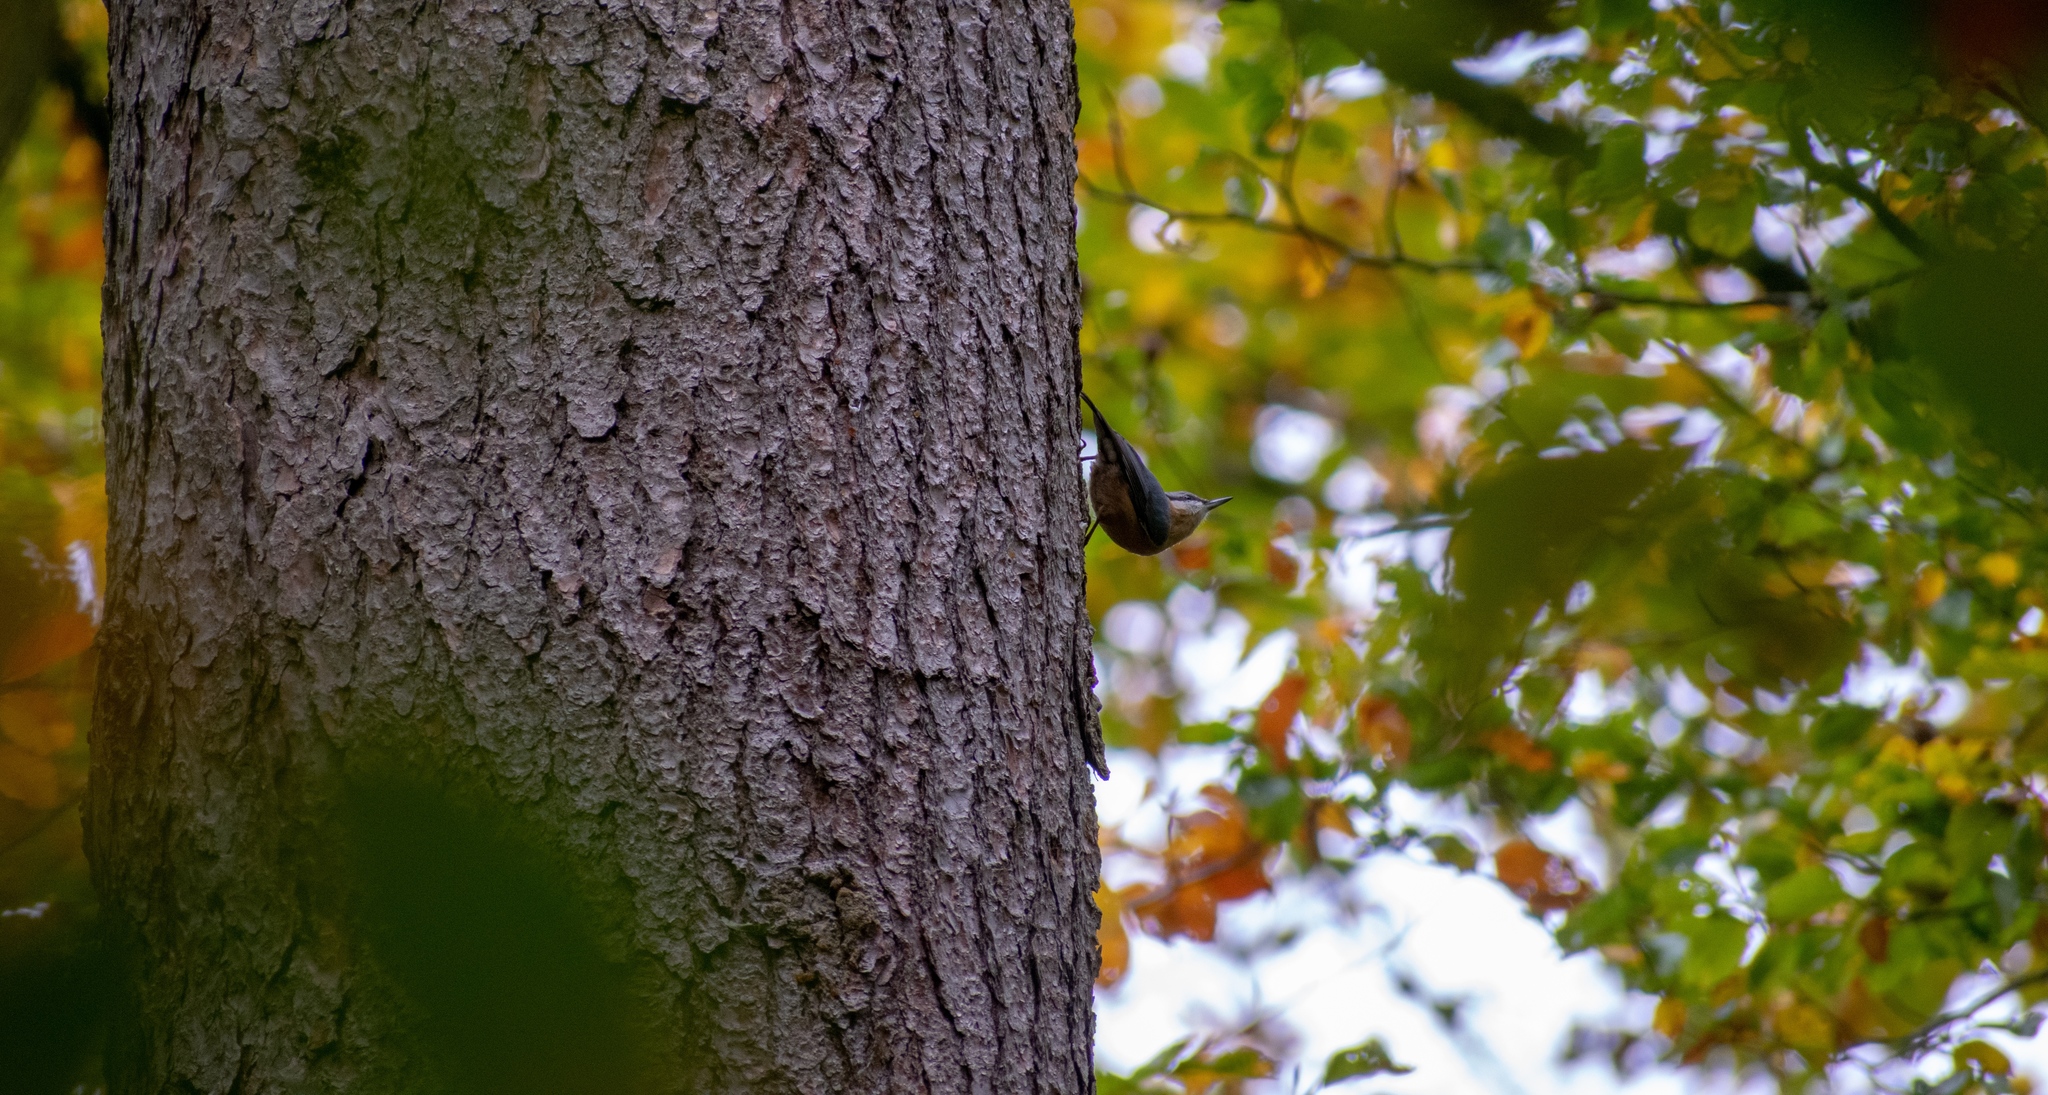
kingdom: Animalia
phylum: Chordata
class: Aves
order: Passeriformes
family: Sittidae
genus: Sitta
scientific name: Sitta europaea
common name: Eurasian nuthatch
